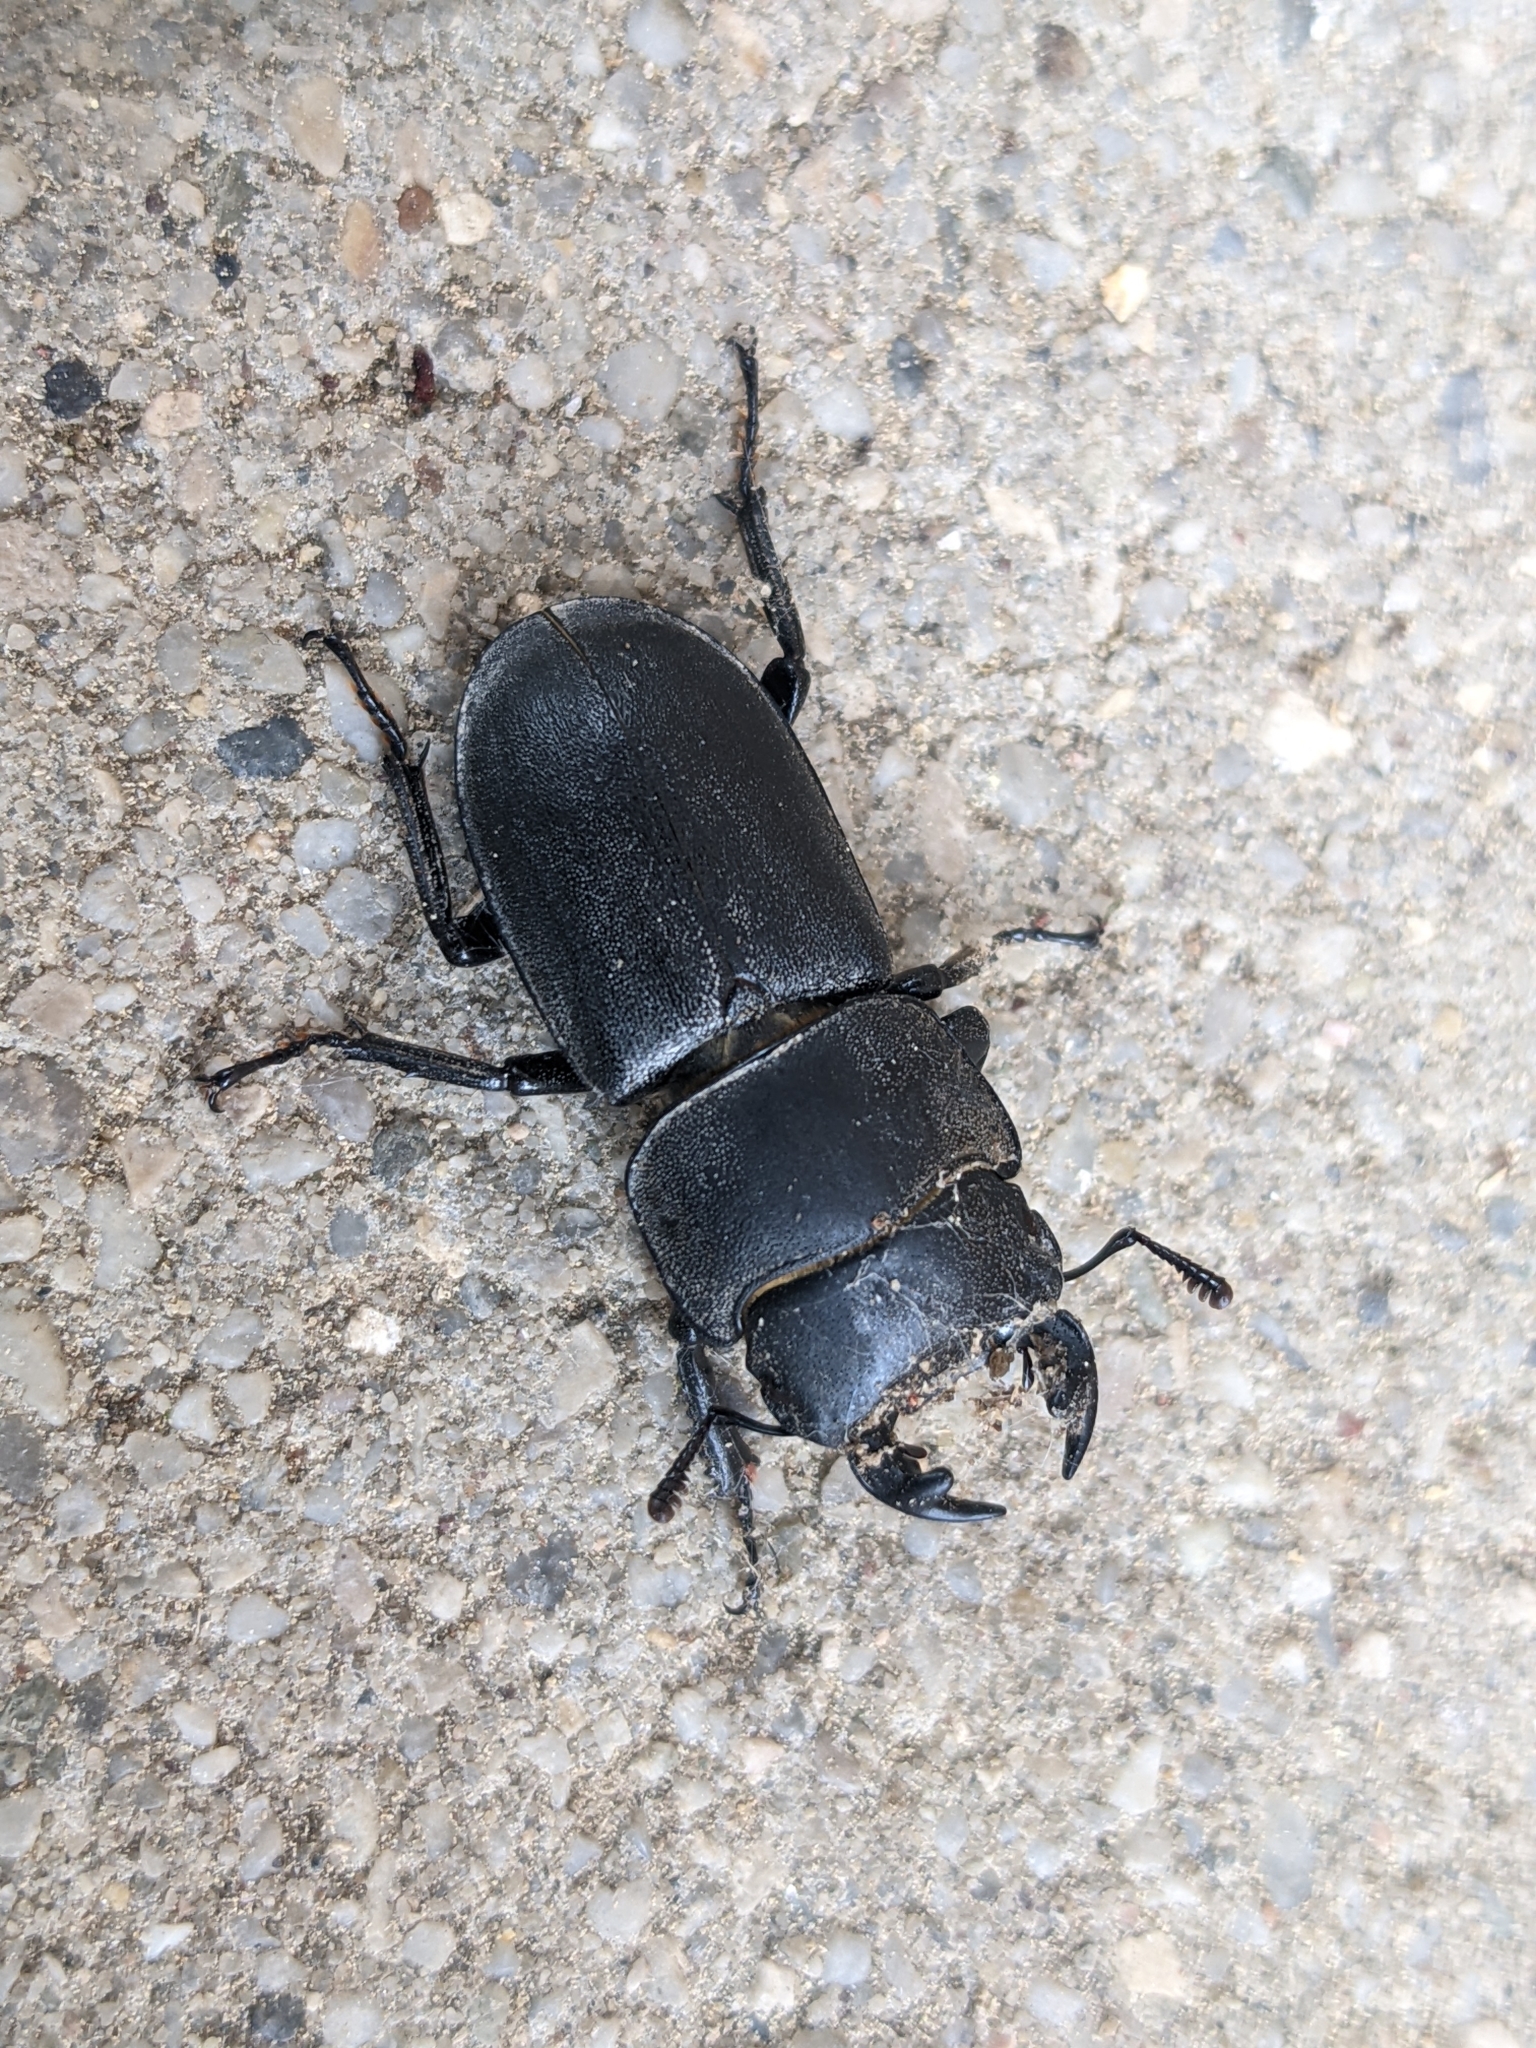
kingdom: Animalia
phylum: Arthropoda
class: Insecta
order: Coleoptera
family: Lucanidae
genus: Dorcus
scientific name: Dorcus parallelipipedus
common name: Lesser stag beetle
